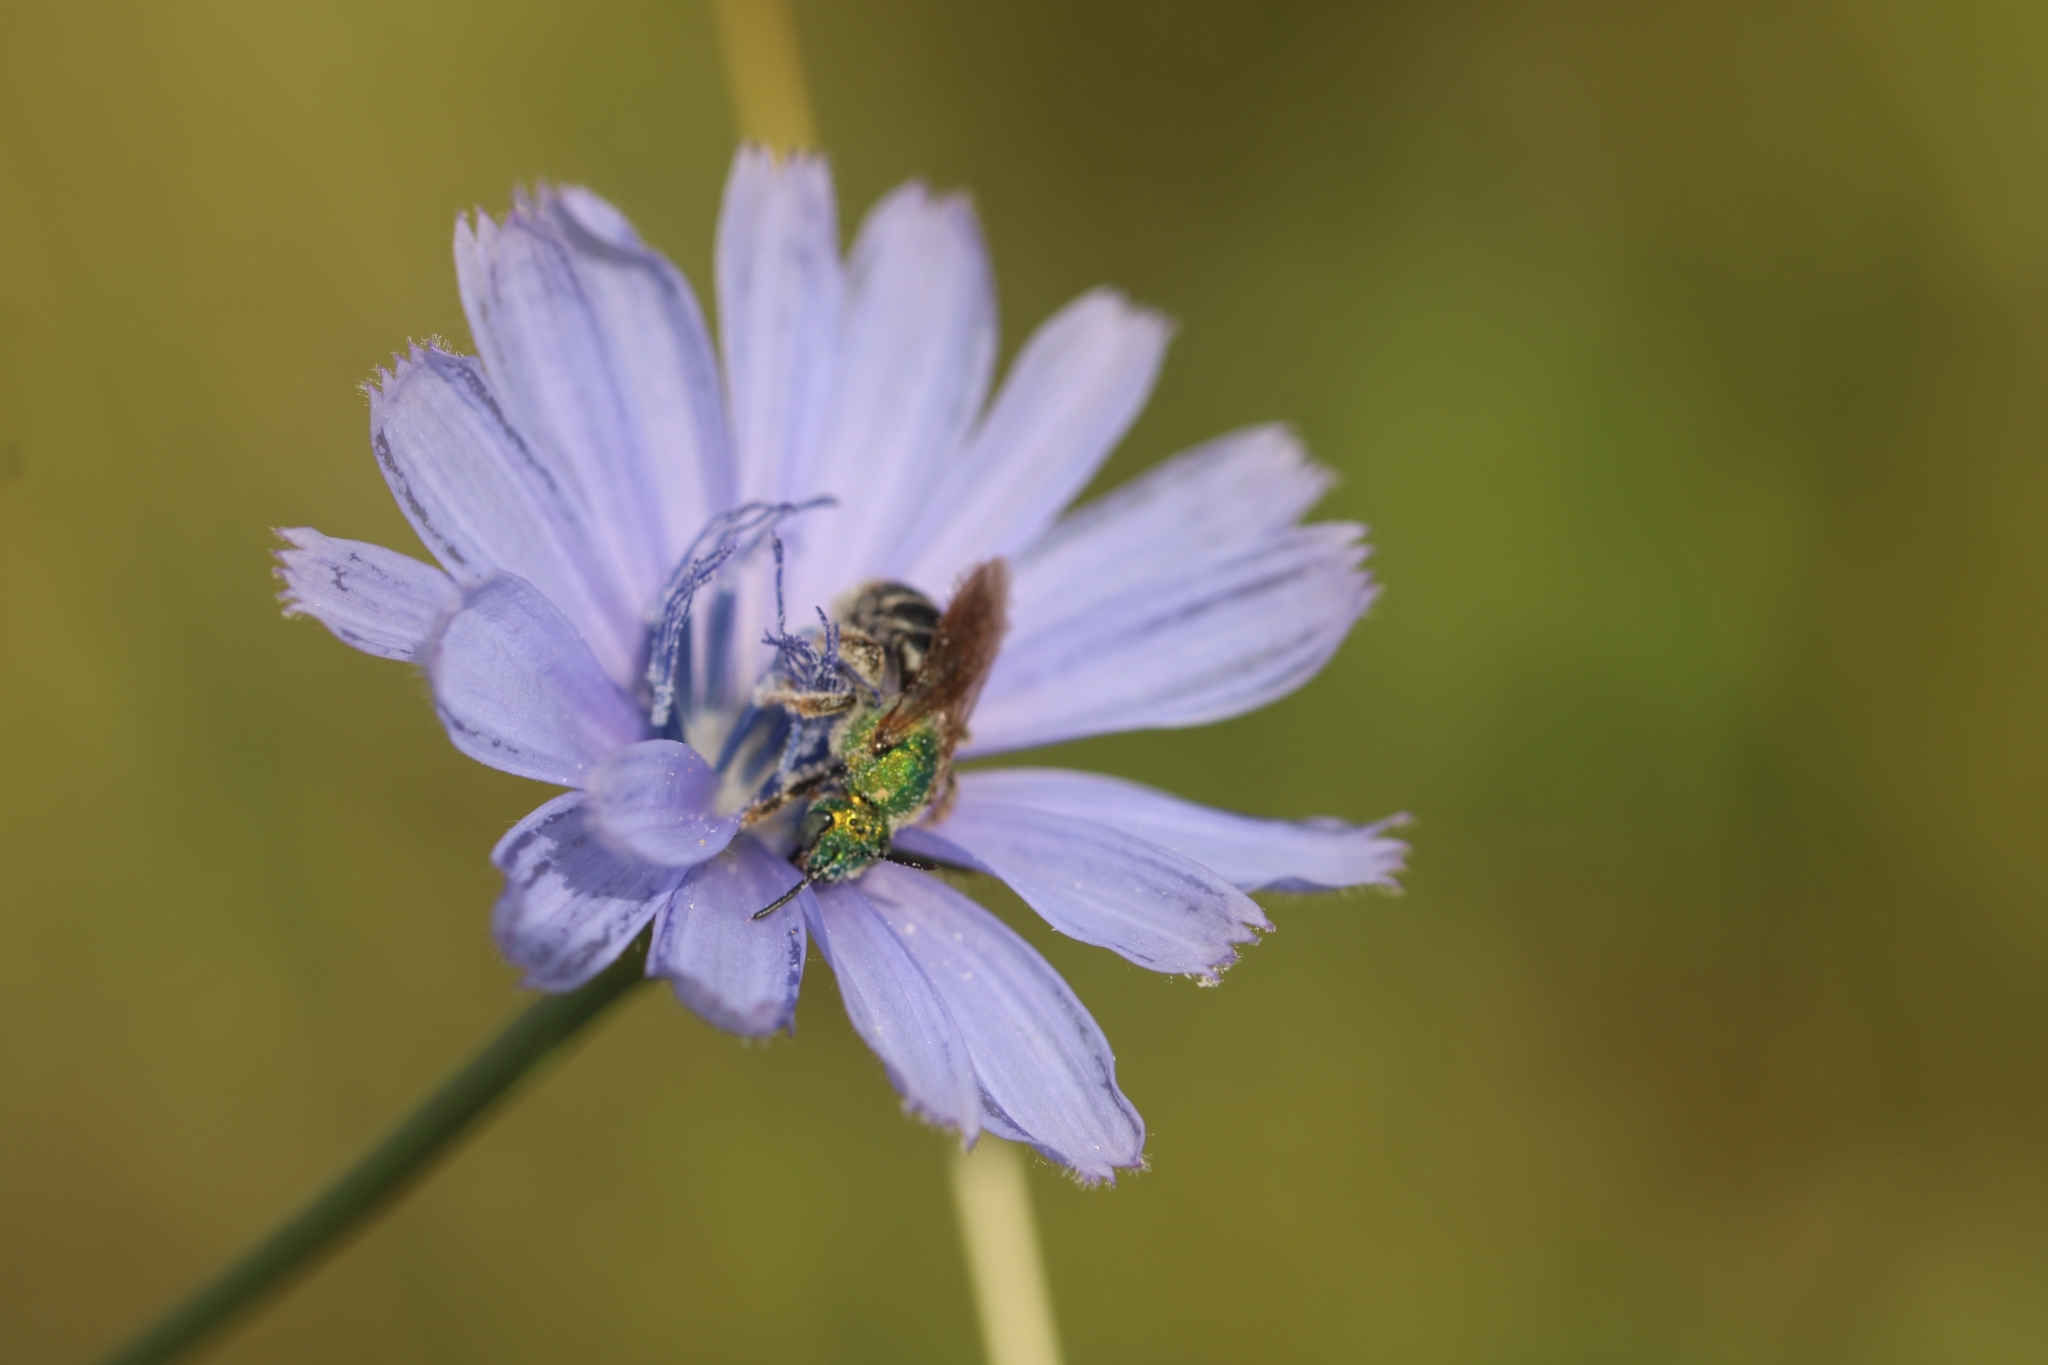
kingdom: Animalia
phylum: Arthropoda
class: Insecta
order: Hymenoptera
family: Halictidae
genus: Agapostemon
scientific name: Agapostemon virescens
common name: Bicolored striped sweat bee
